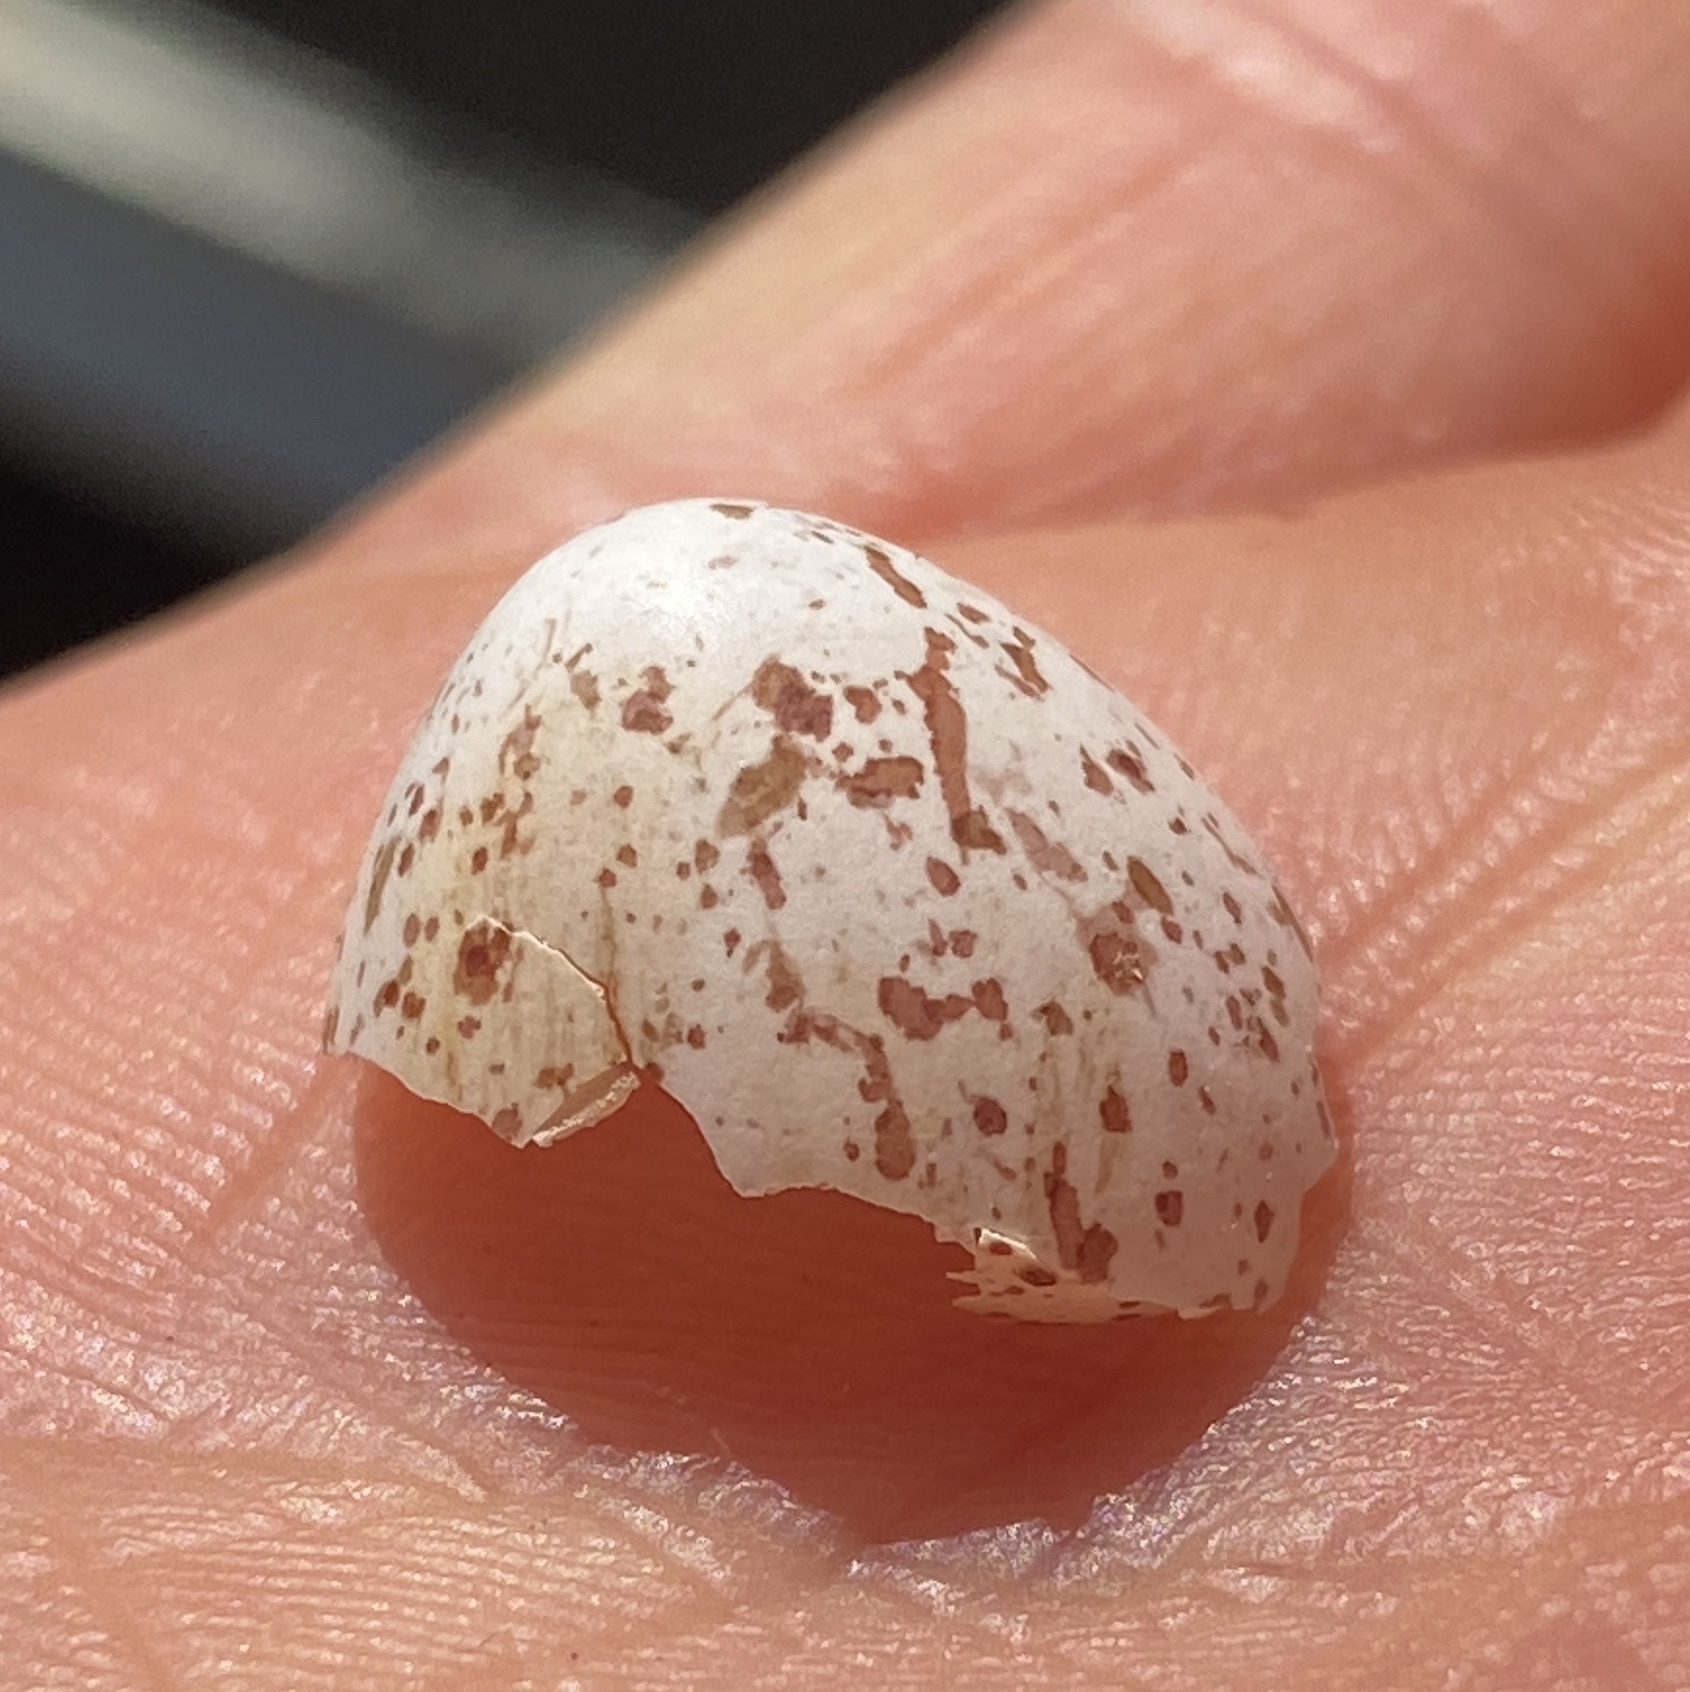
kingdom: Animalia
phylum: Chordata
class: Aves
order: Passeriformes
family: Paridae
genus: Parus
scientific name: Parus major
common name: Great tit
